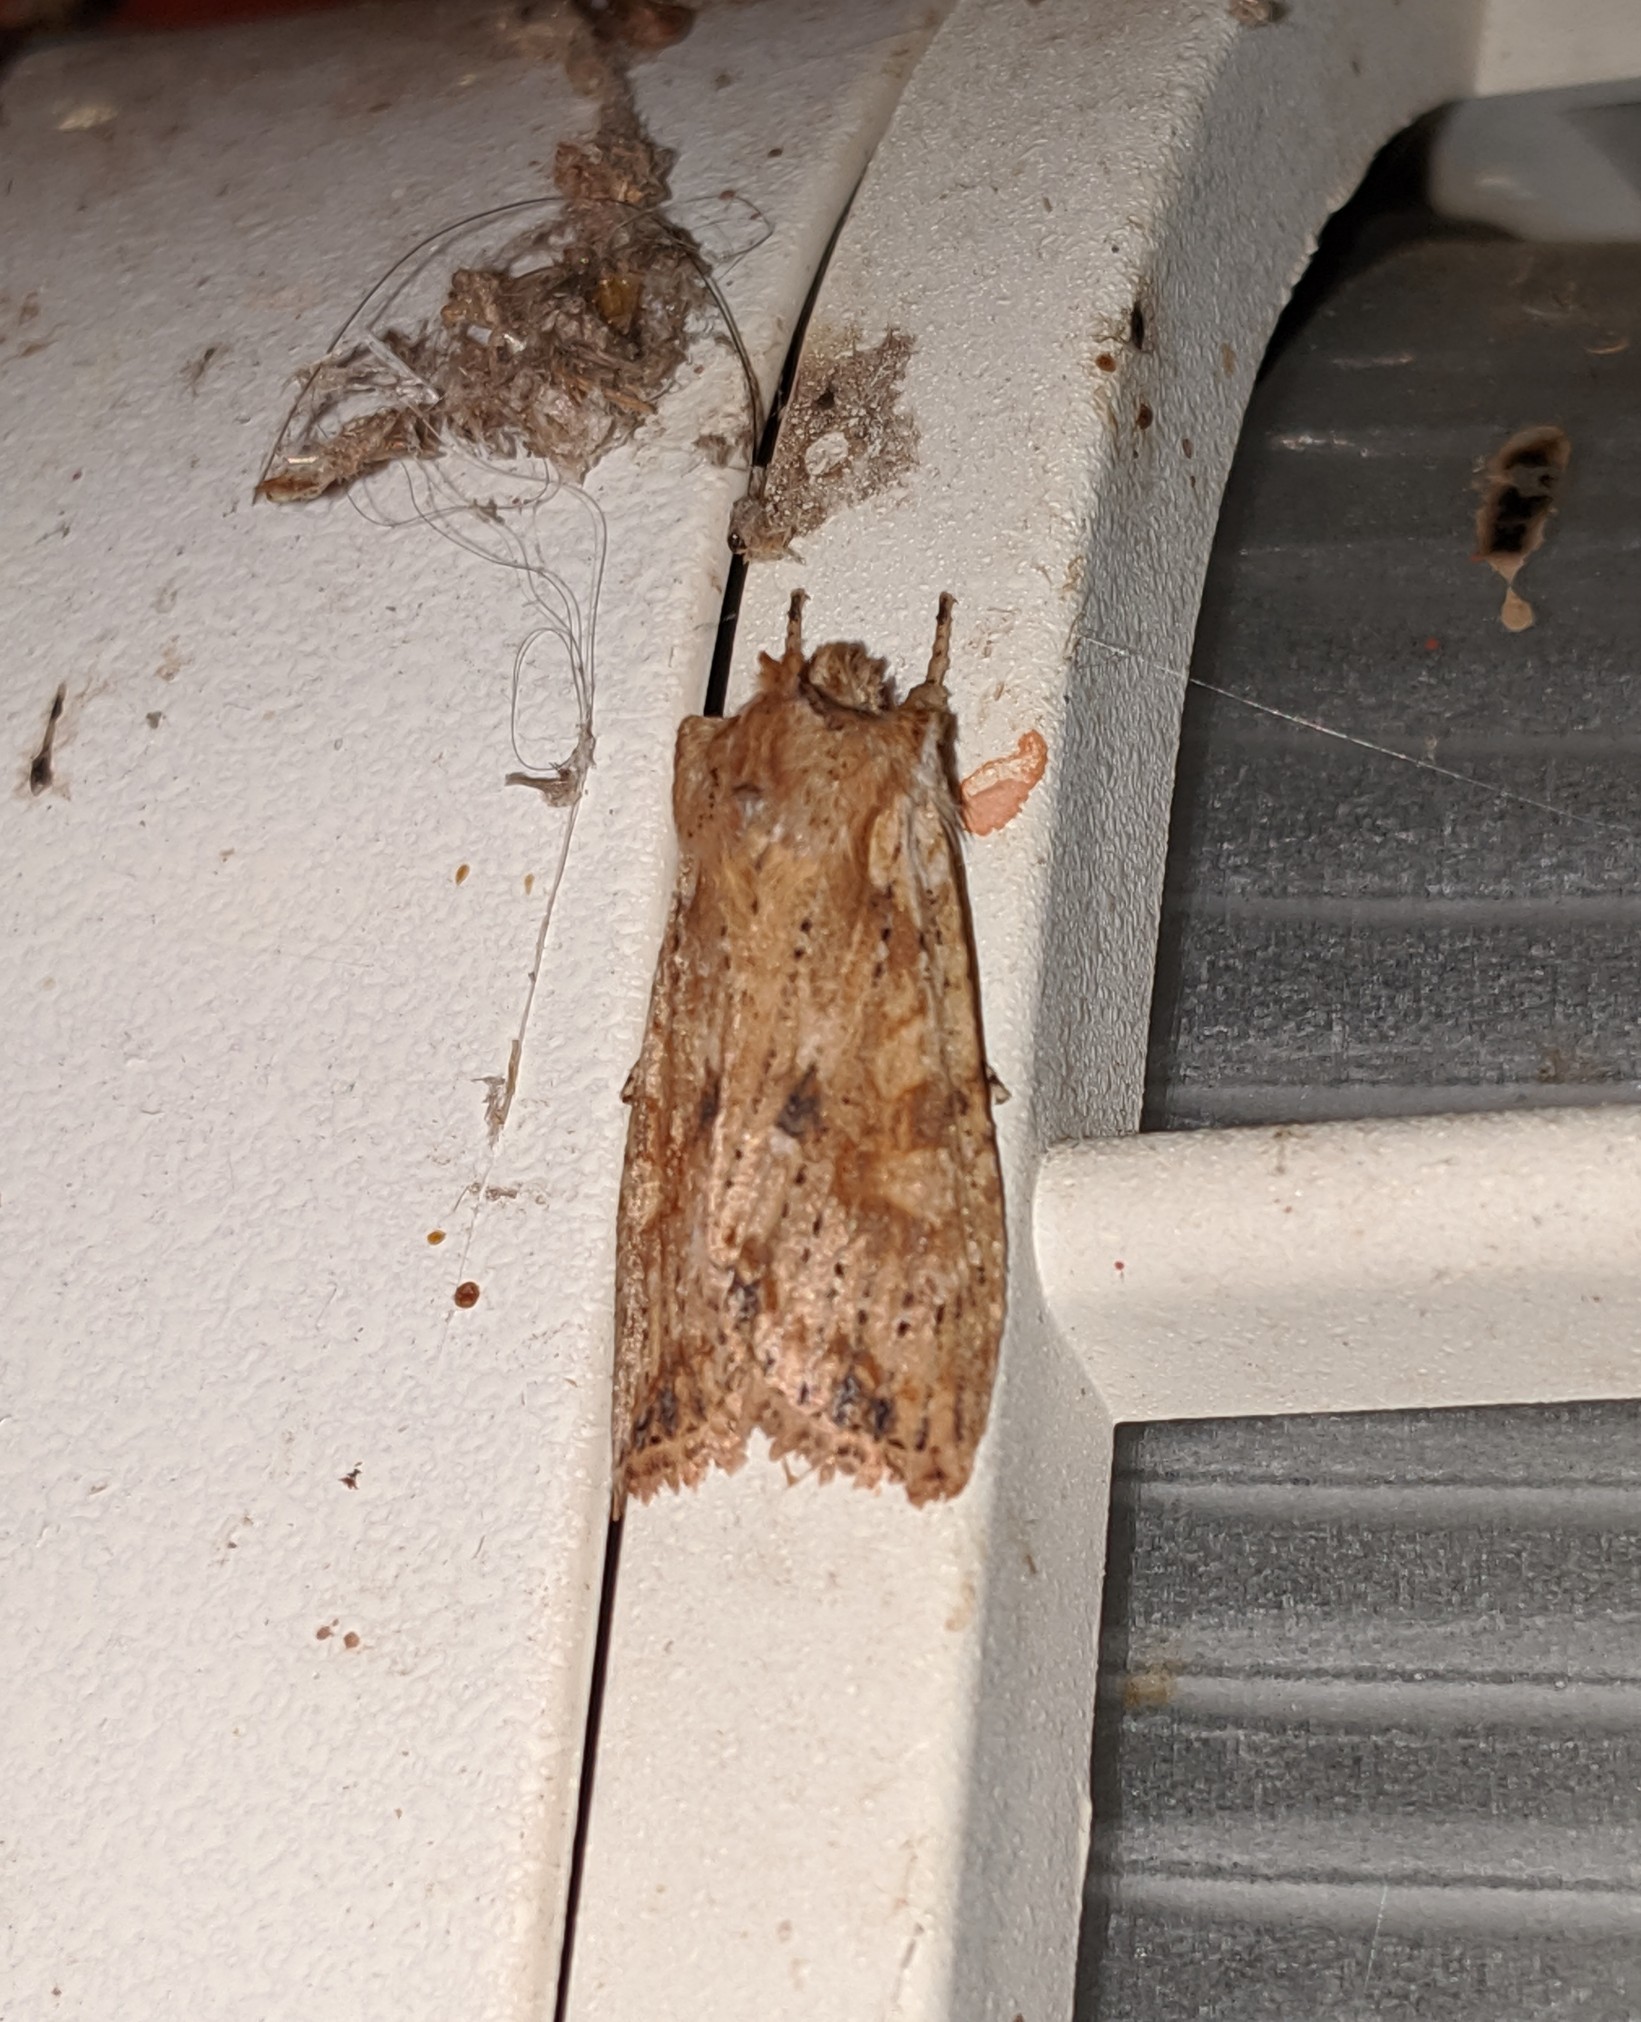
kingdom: Animalia
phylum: Arthropoda
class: Insecta
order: Lepidoptera
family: Noctuidae
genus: Lithophane
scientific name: Lithophane innominata
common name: Nameless pinion moth
